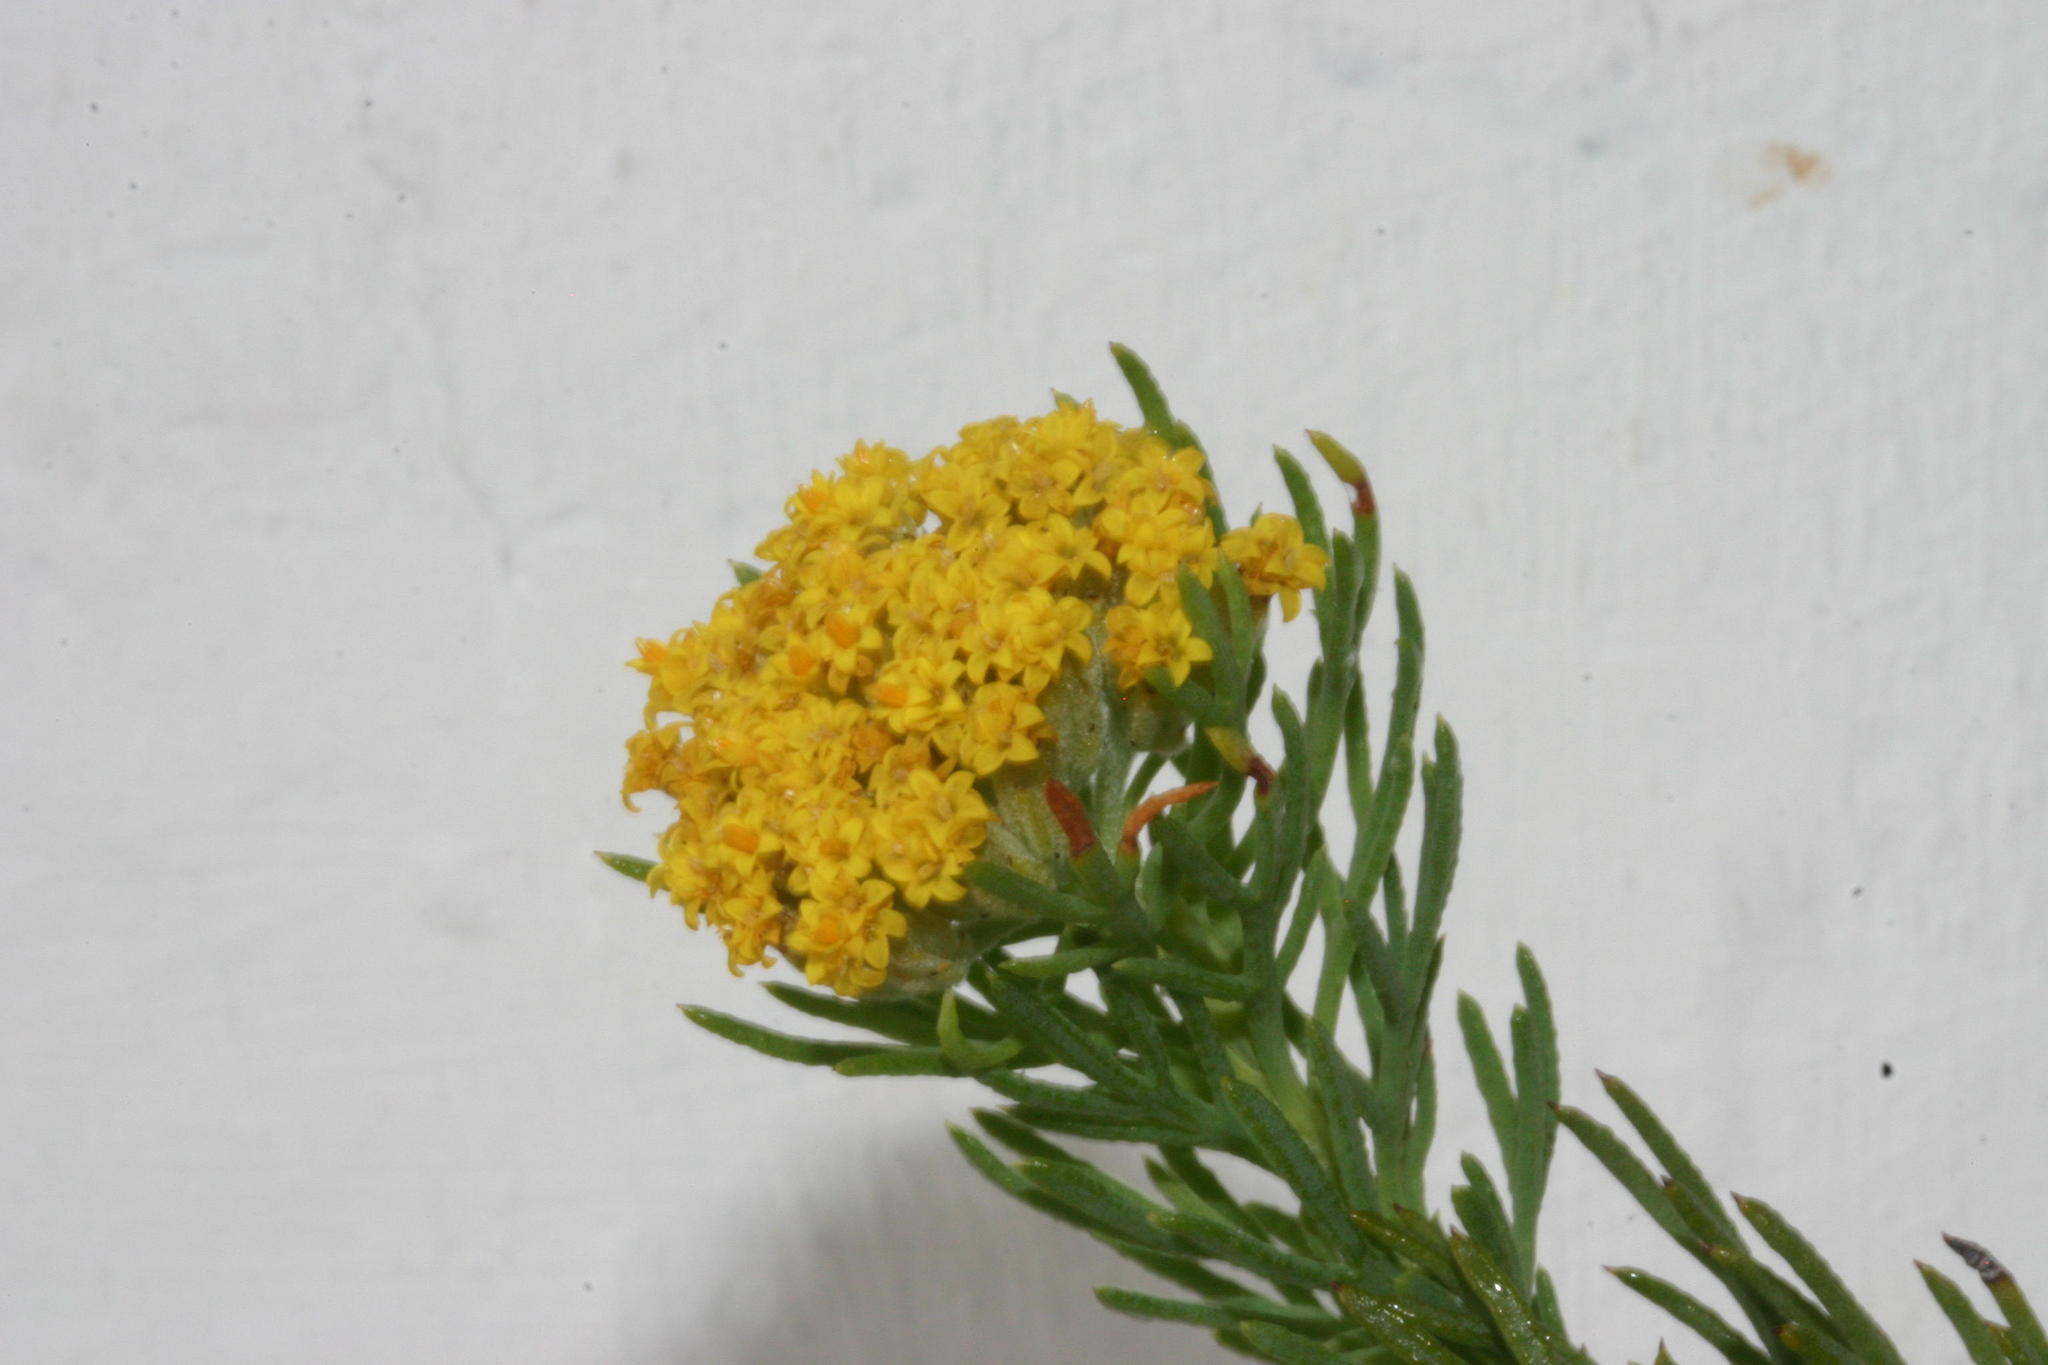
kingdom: Plantae
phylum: Tracheophyta
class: Magnoliopsida
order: Asterales
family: Asteraceae
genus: Hymenolepis
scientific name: Hymenolepis incisa
